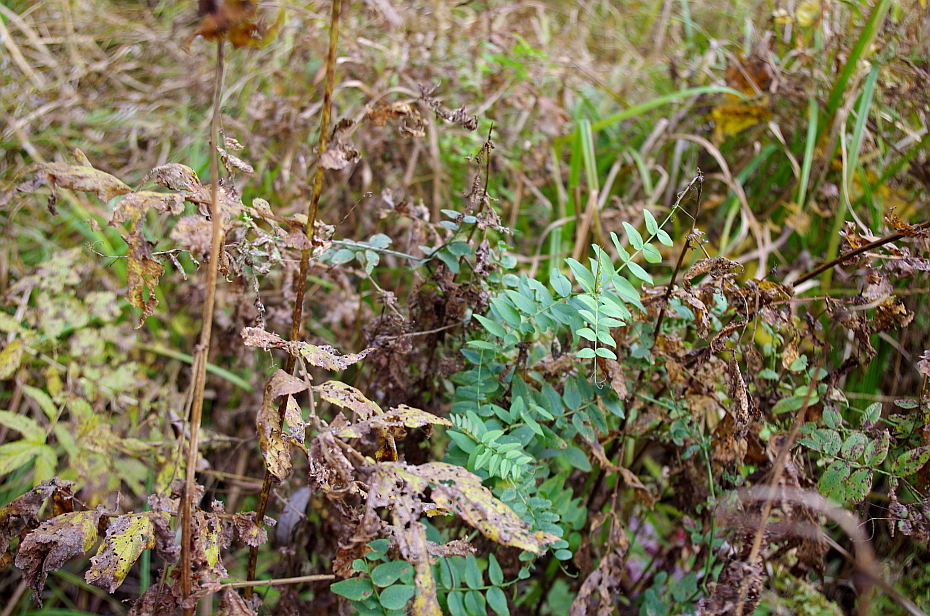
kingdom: Plantae
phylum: Tracheophyta
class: Magnoliopsida
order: Rosales
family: Rosaceae
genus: Filipendula
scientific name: Filipendula ulmaria
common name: Meadowsweet
